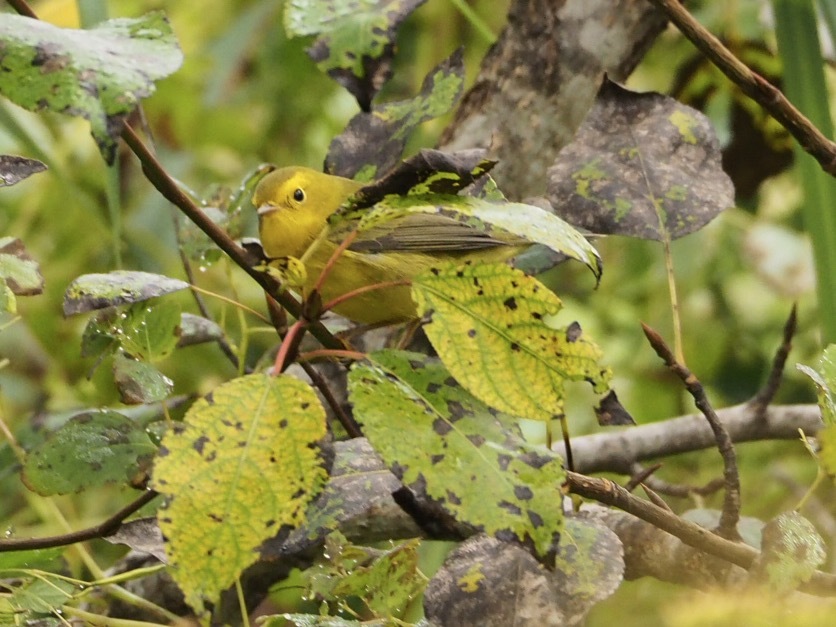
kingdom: Animalia
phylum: Chordata
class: Aves
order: Passeriformes
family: Parulidae
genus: Cardellina
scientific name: Cardellina pusilla
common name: Wilson's warbler
